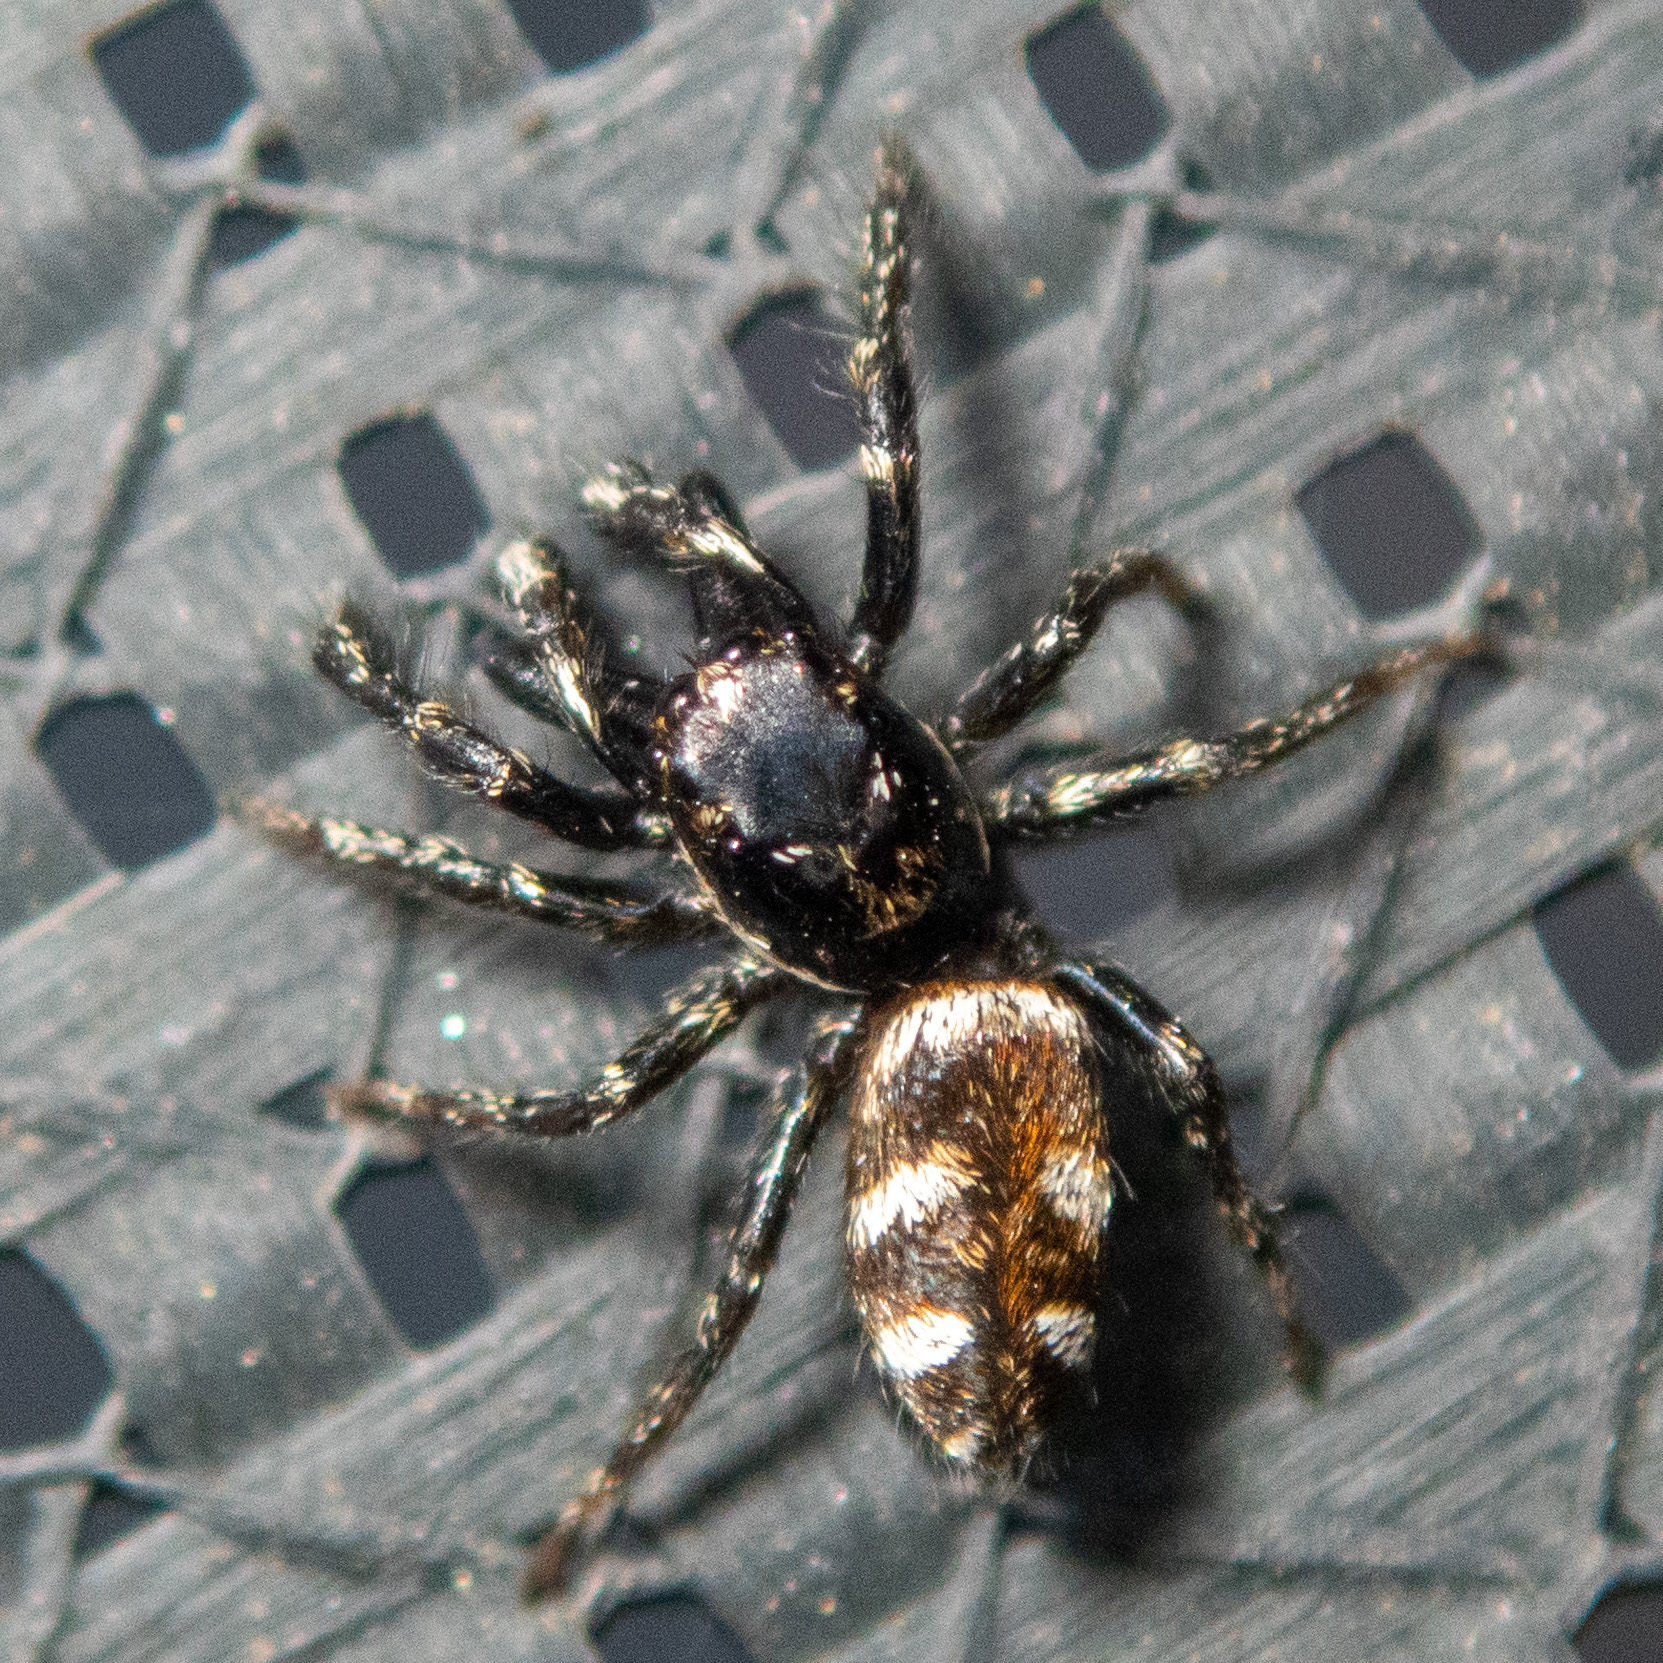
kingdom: Animalia
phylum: Arthropoda
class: Arachnida
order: Araneae
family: Salticidae
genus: Salticus
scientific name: Salticus scenicus
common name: Zebra jumper
